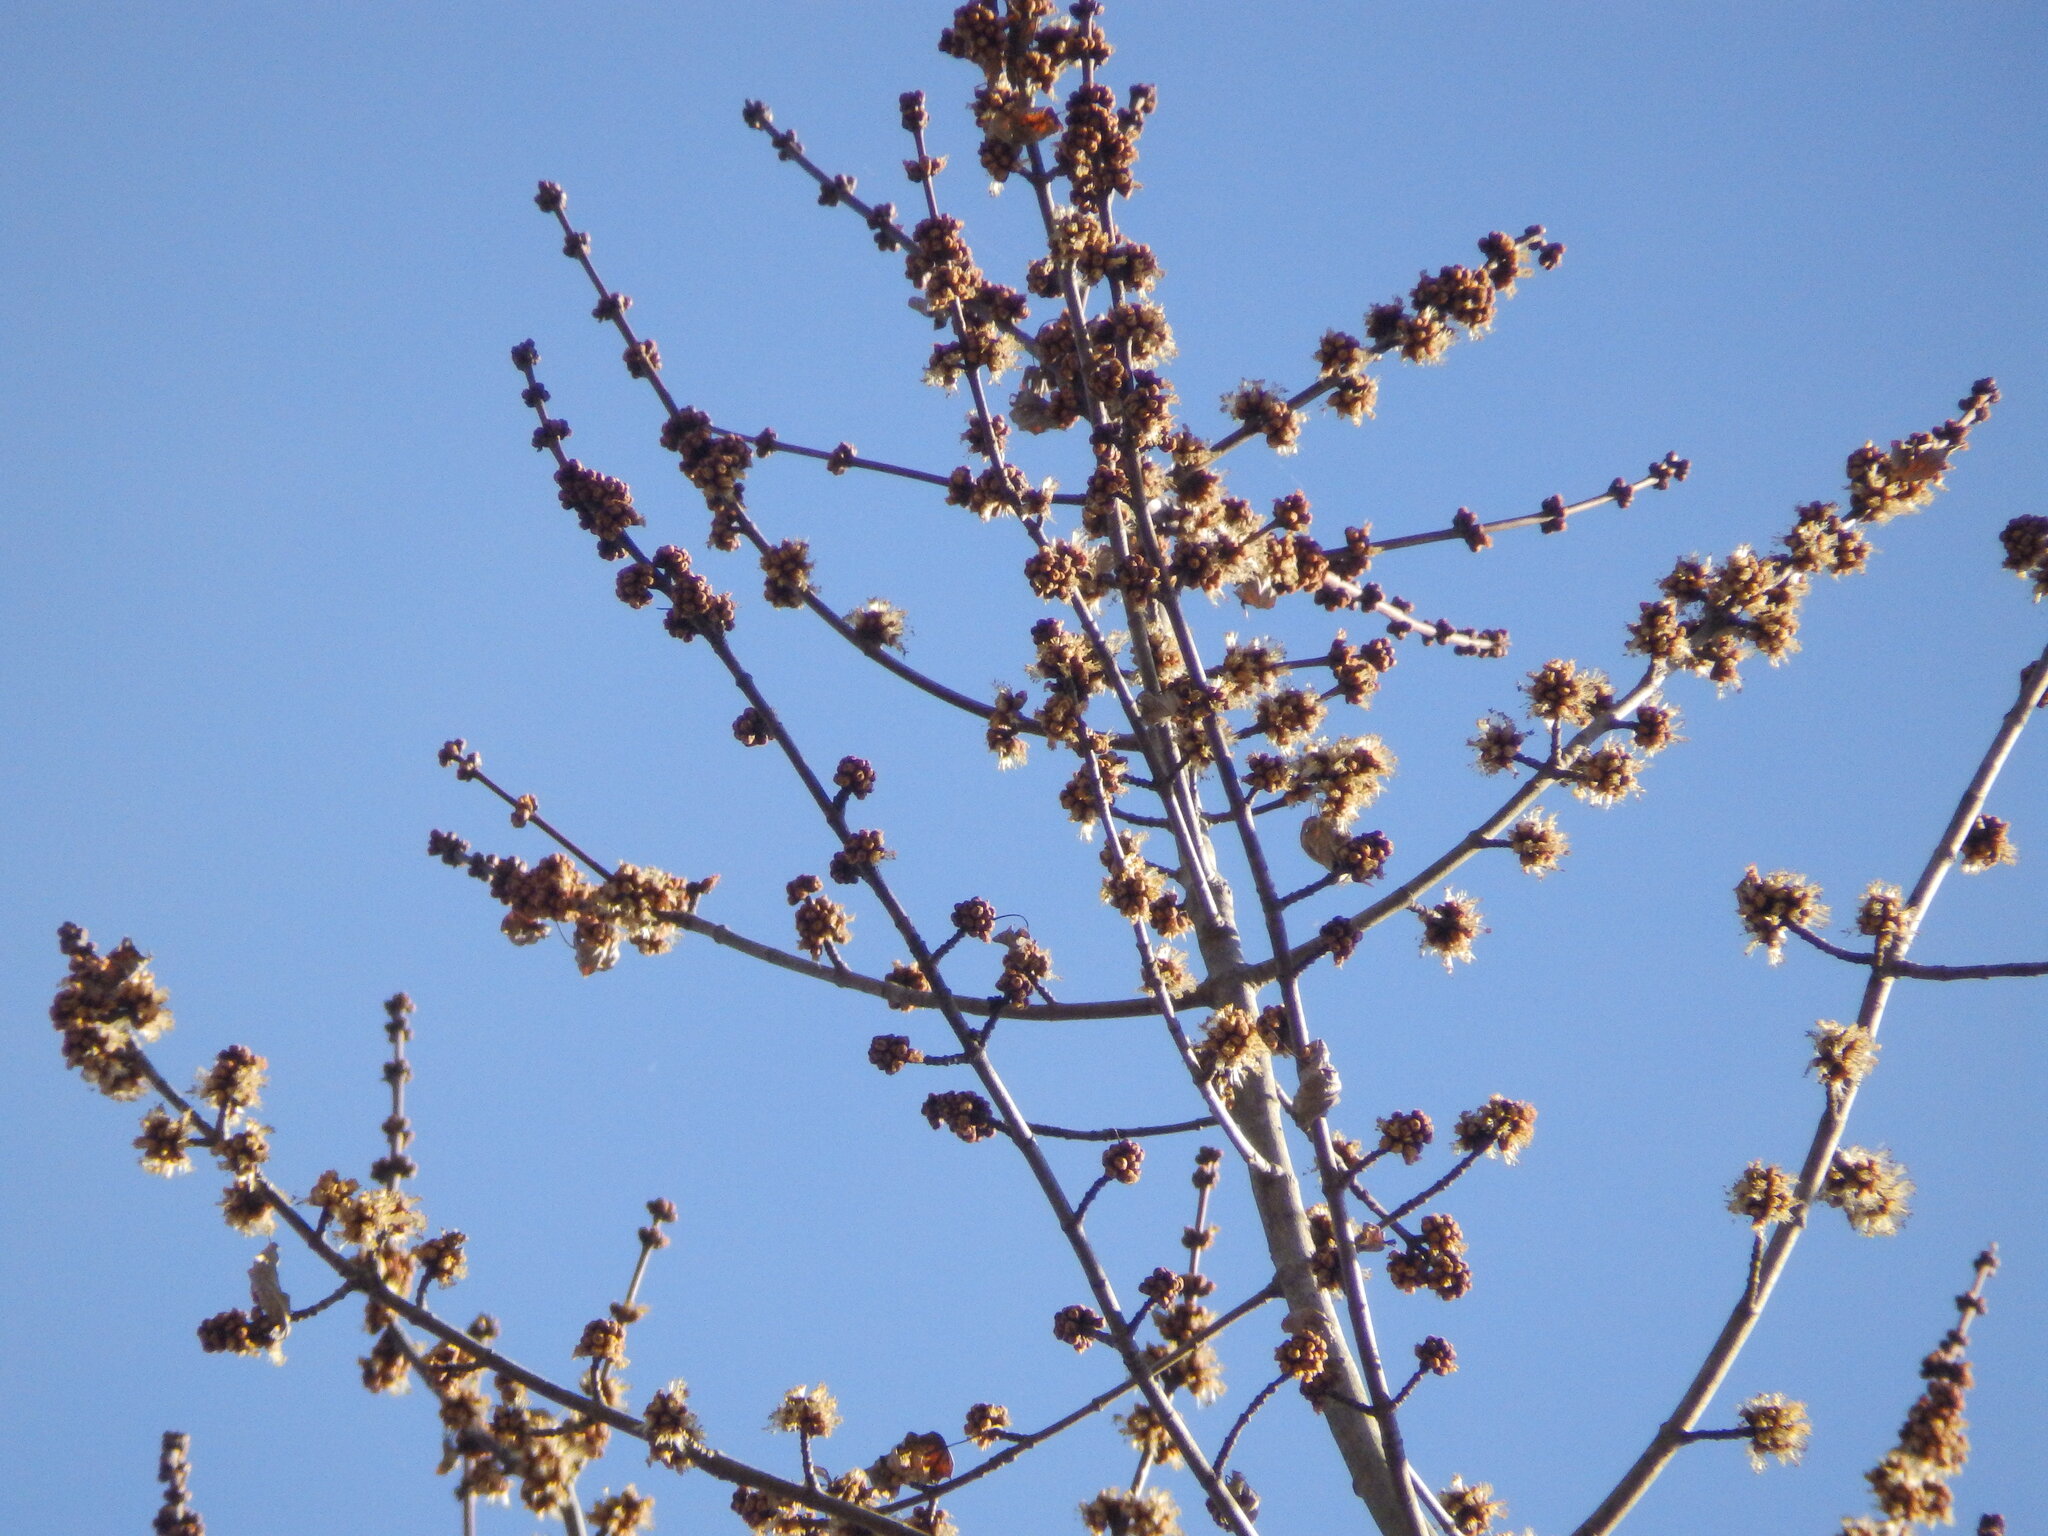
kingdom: Plantae
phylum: Tracheophyta
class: Magnoliopsida
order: Sapindales
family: Sapindaceae
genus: Acer
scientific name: Acer saccharinum
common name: Silver maple
